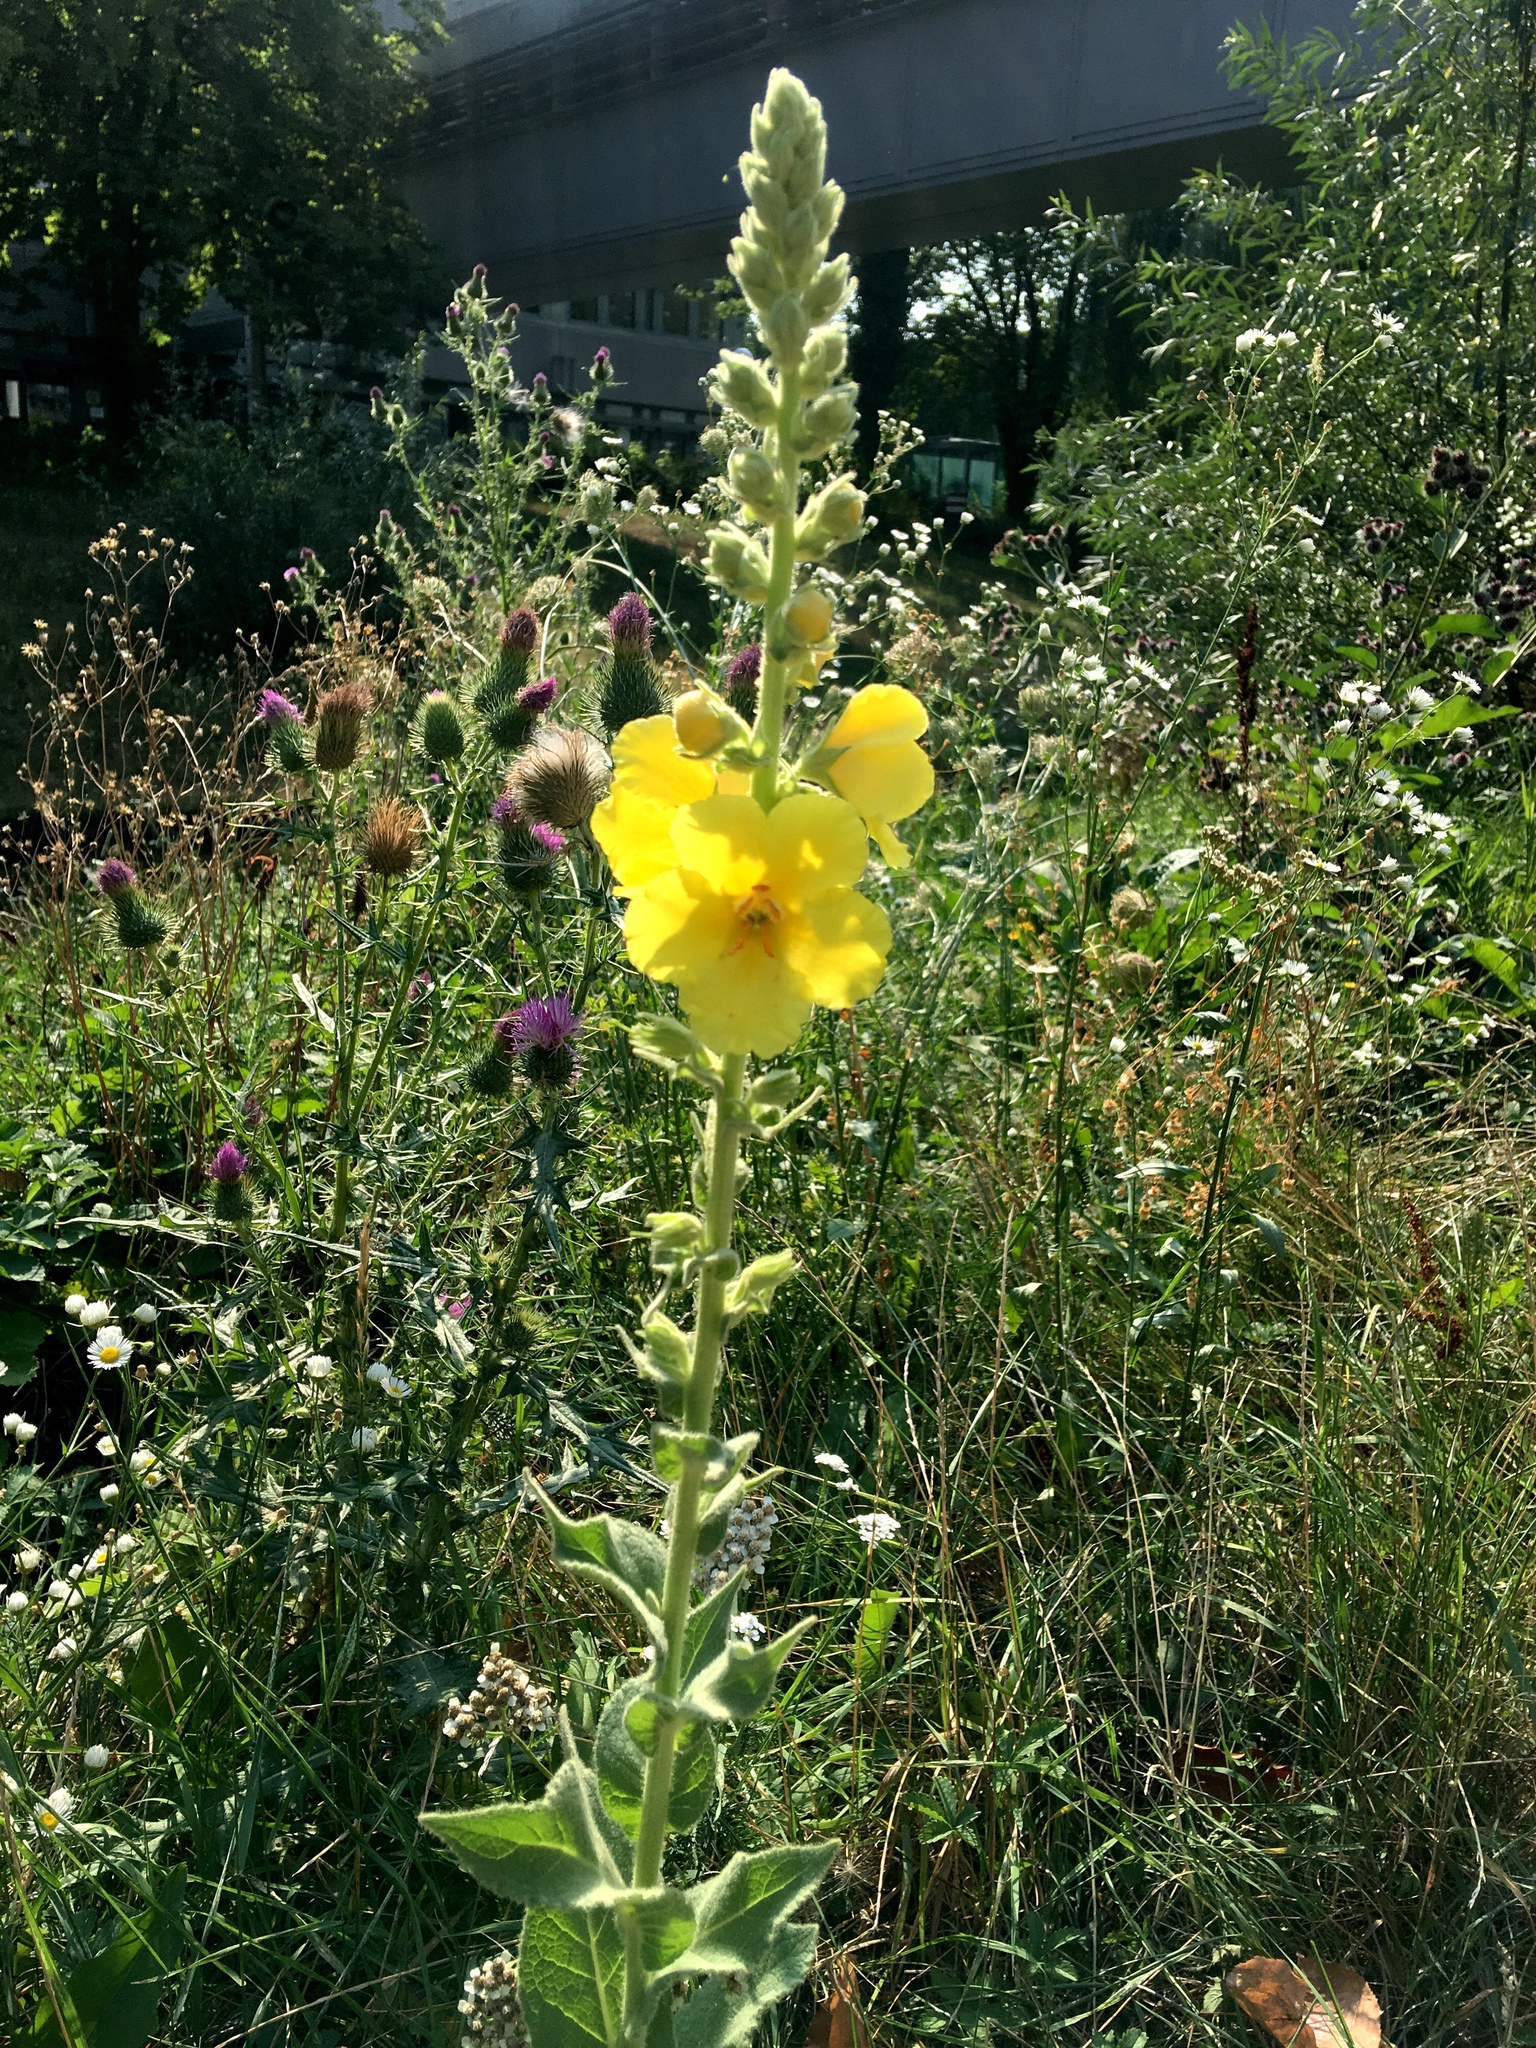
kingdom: Plantae
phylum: Tracheophyta
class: Magnoliopsida
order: Lamiales
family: Scrophulariaceae
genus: Verbascum
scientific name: Verbascum phlomoides
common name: Orange mullein
